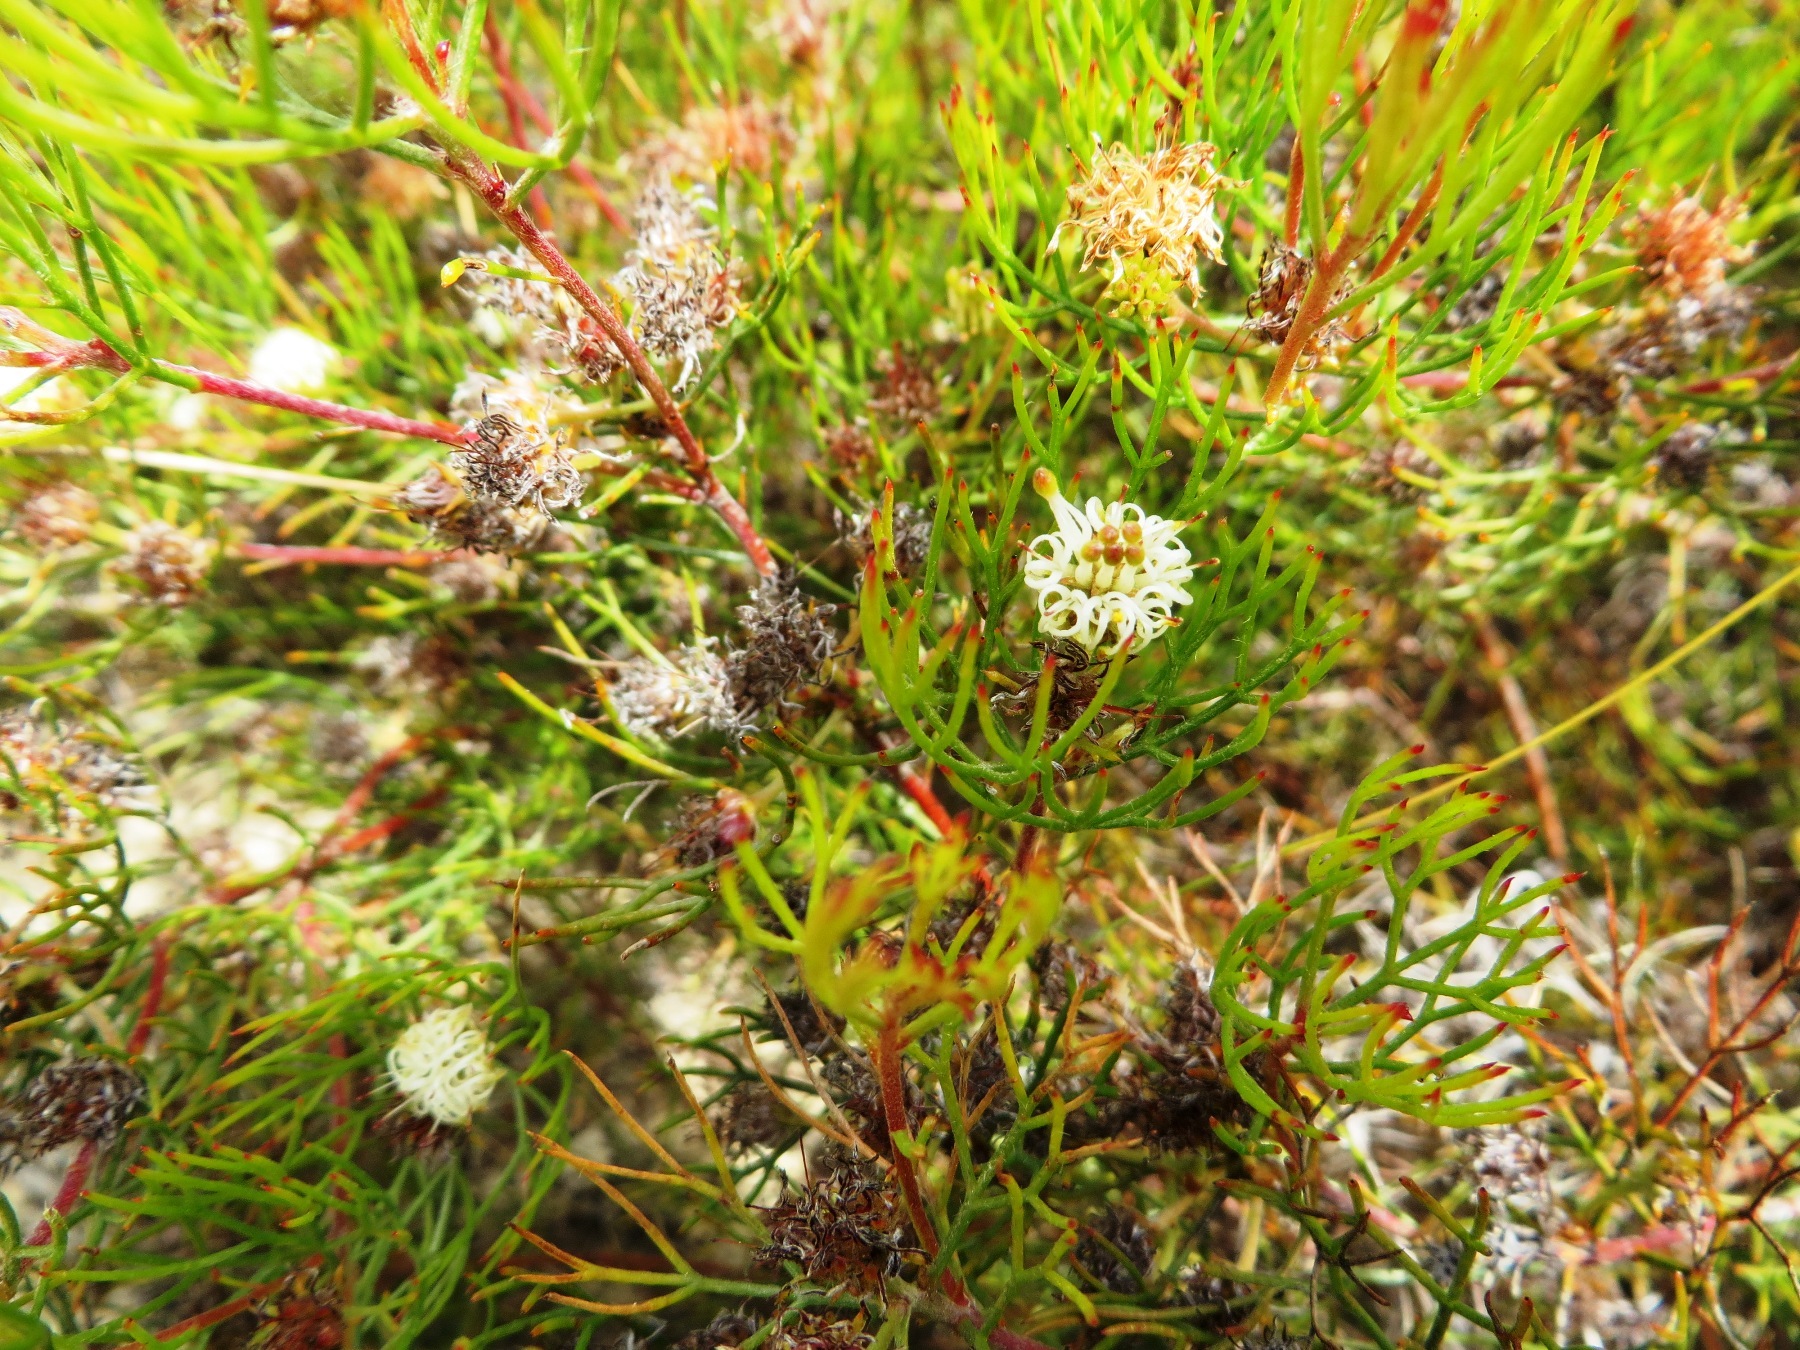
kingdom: Plantae
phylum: Tracheophyta
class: Magnoliopsida
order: Proteales
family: Proteaceae
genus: Serruria
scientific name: Serruria fasciflora
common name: Common pin spiderhead
